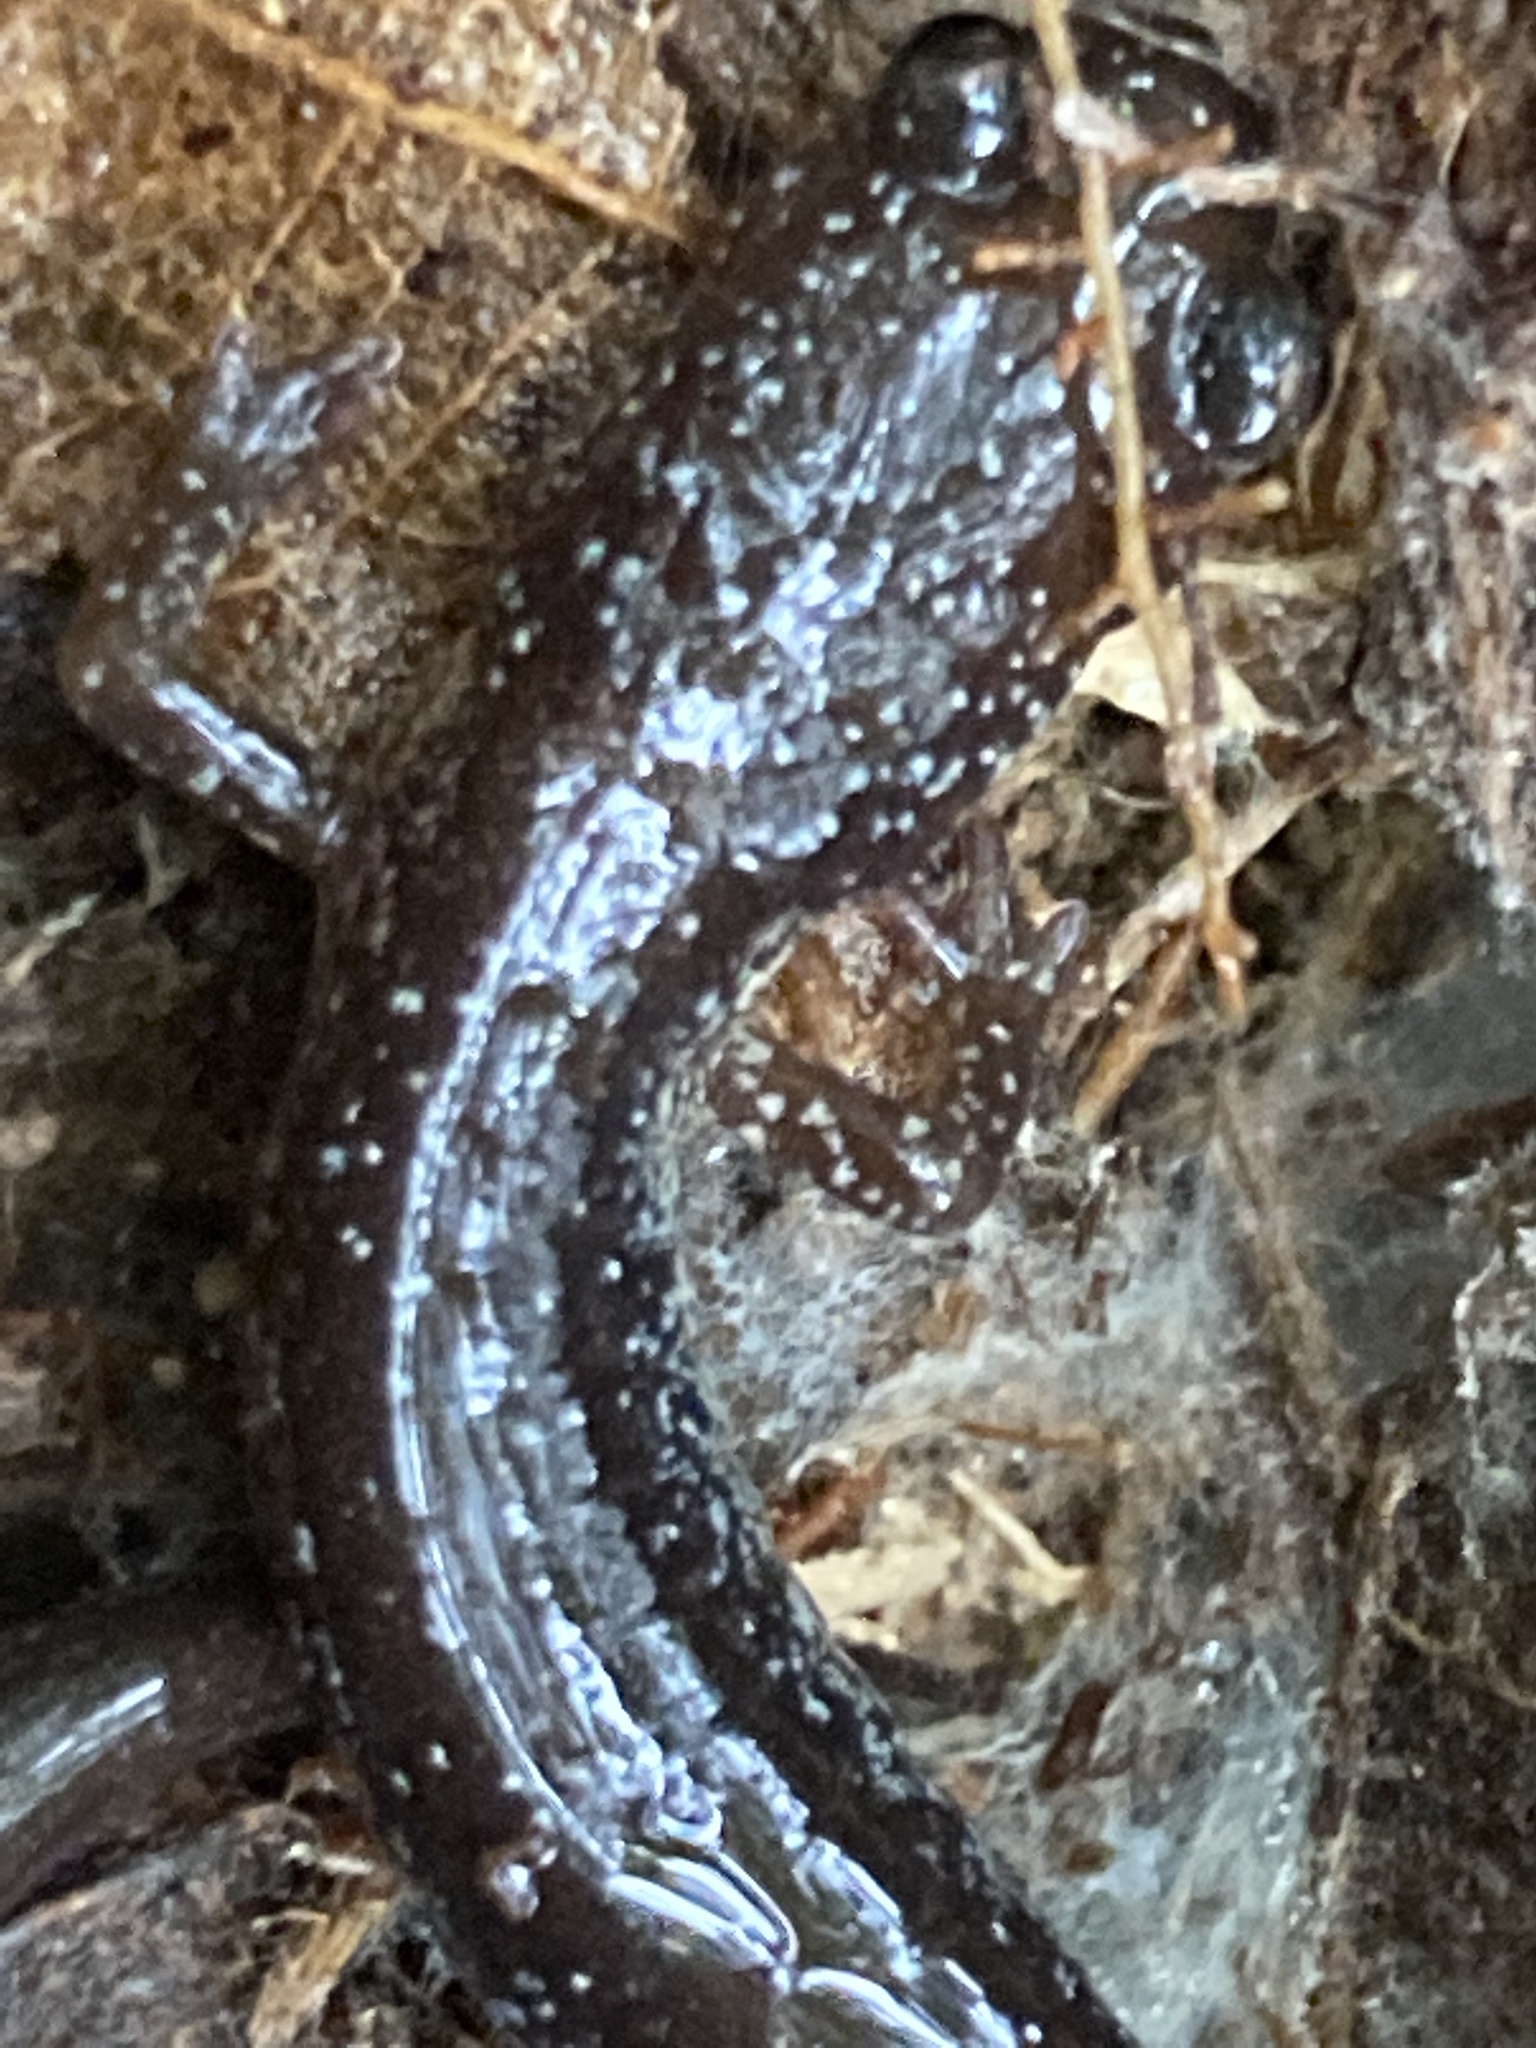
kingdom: Animalia
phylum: Chordata
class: Amphibia
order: Caudata
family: Plethodontidae
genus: Plethodon
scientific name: Plethodon cinereus
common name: Redback salamander
